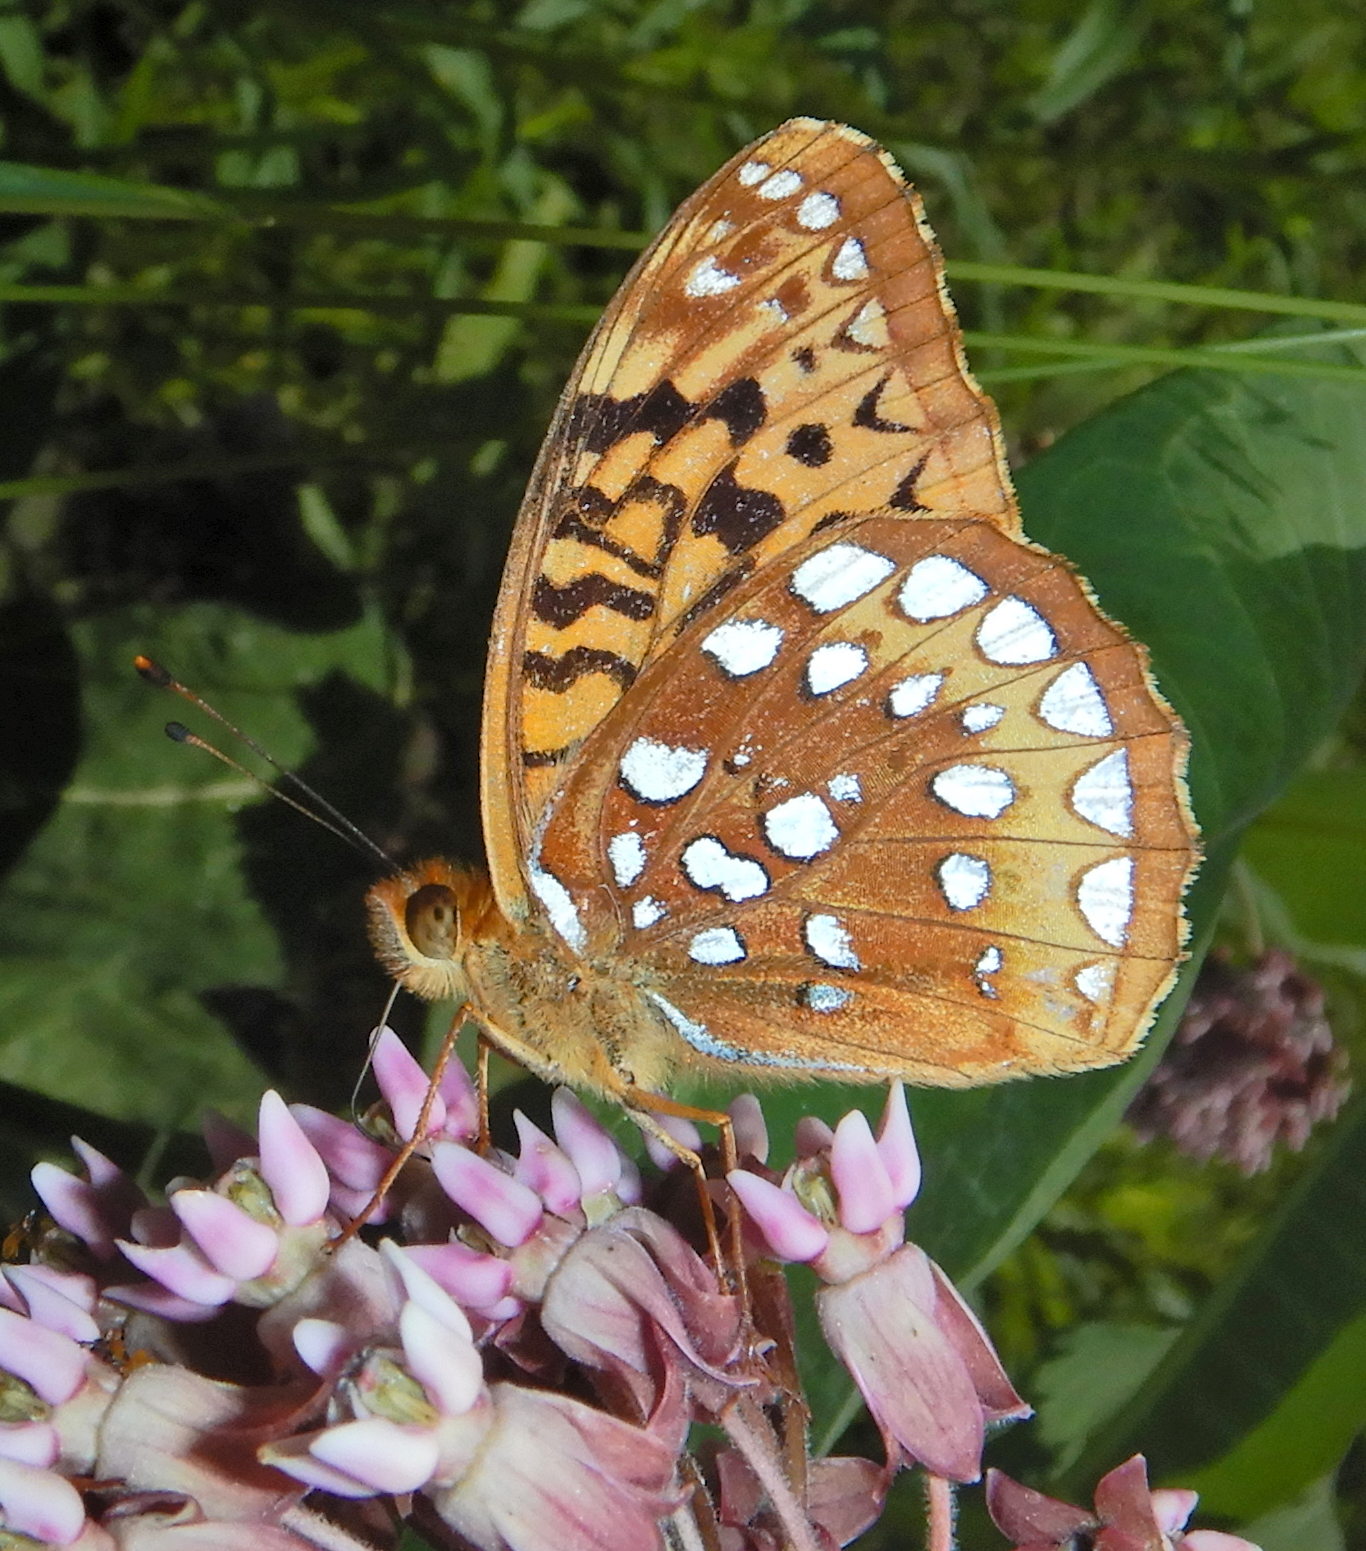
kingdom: Animalia
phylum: Arthropoda
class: Insecta
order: Lepidoptera
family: Nymphalidae
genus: Speyeria
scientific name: Speyeria cybele
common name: Great spangled fritillary
